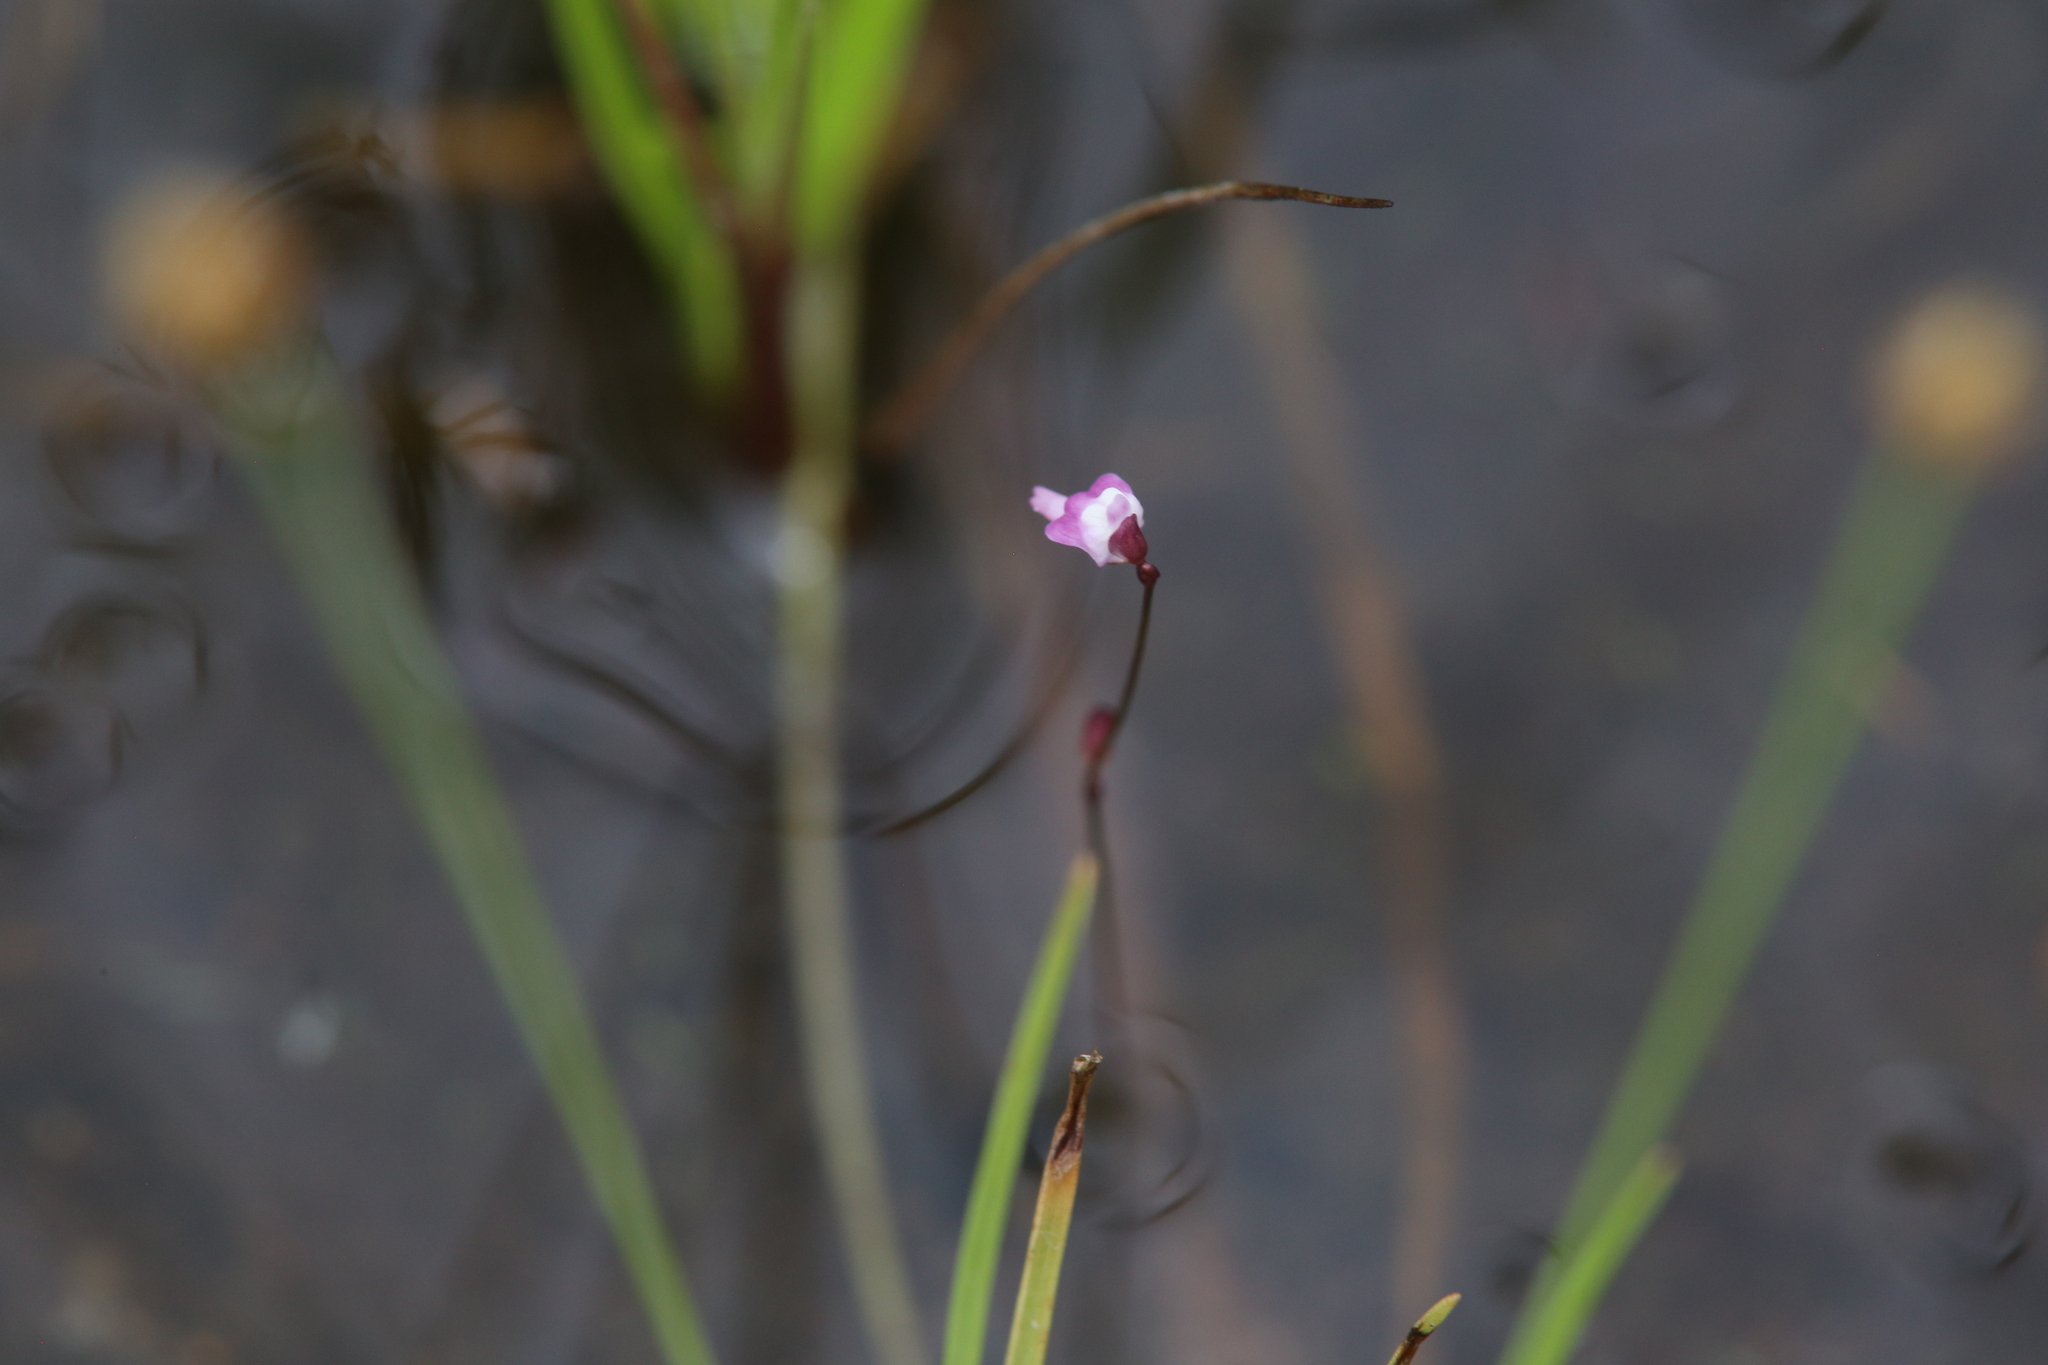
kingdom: Plantae
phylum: Tracheophyta
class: Magnoliopsida
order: Lamiales
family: Lentibulariaceae
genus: Utricularia
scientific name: Utricularia minutissima
